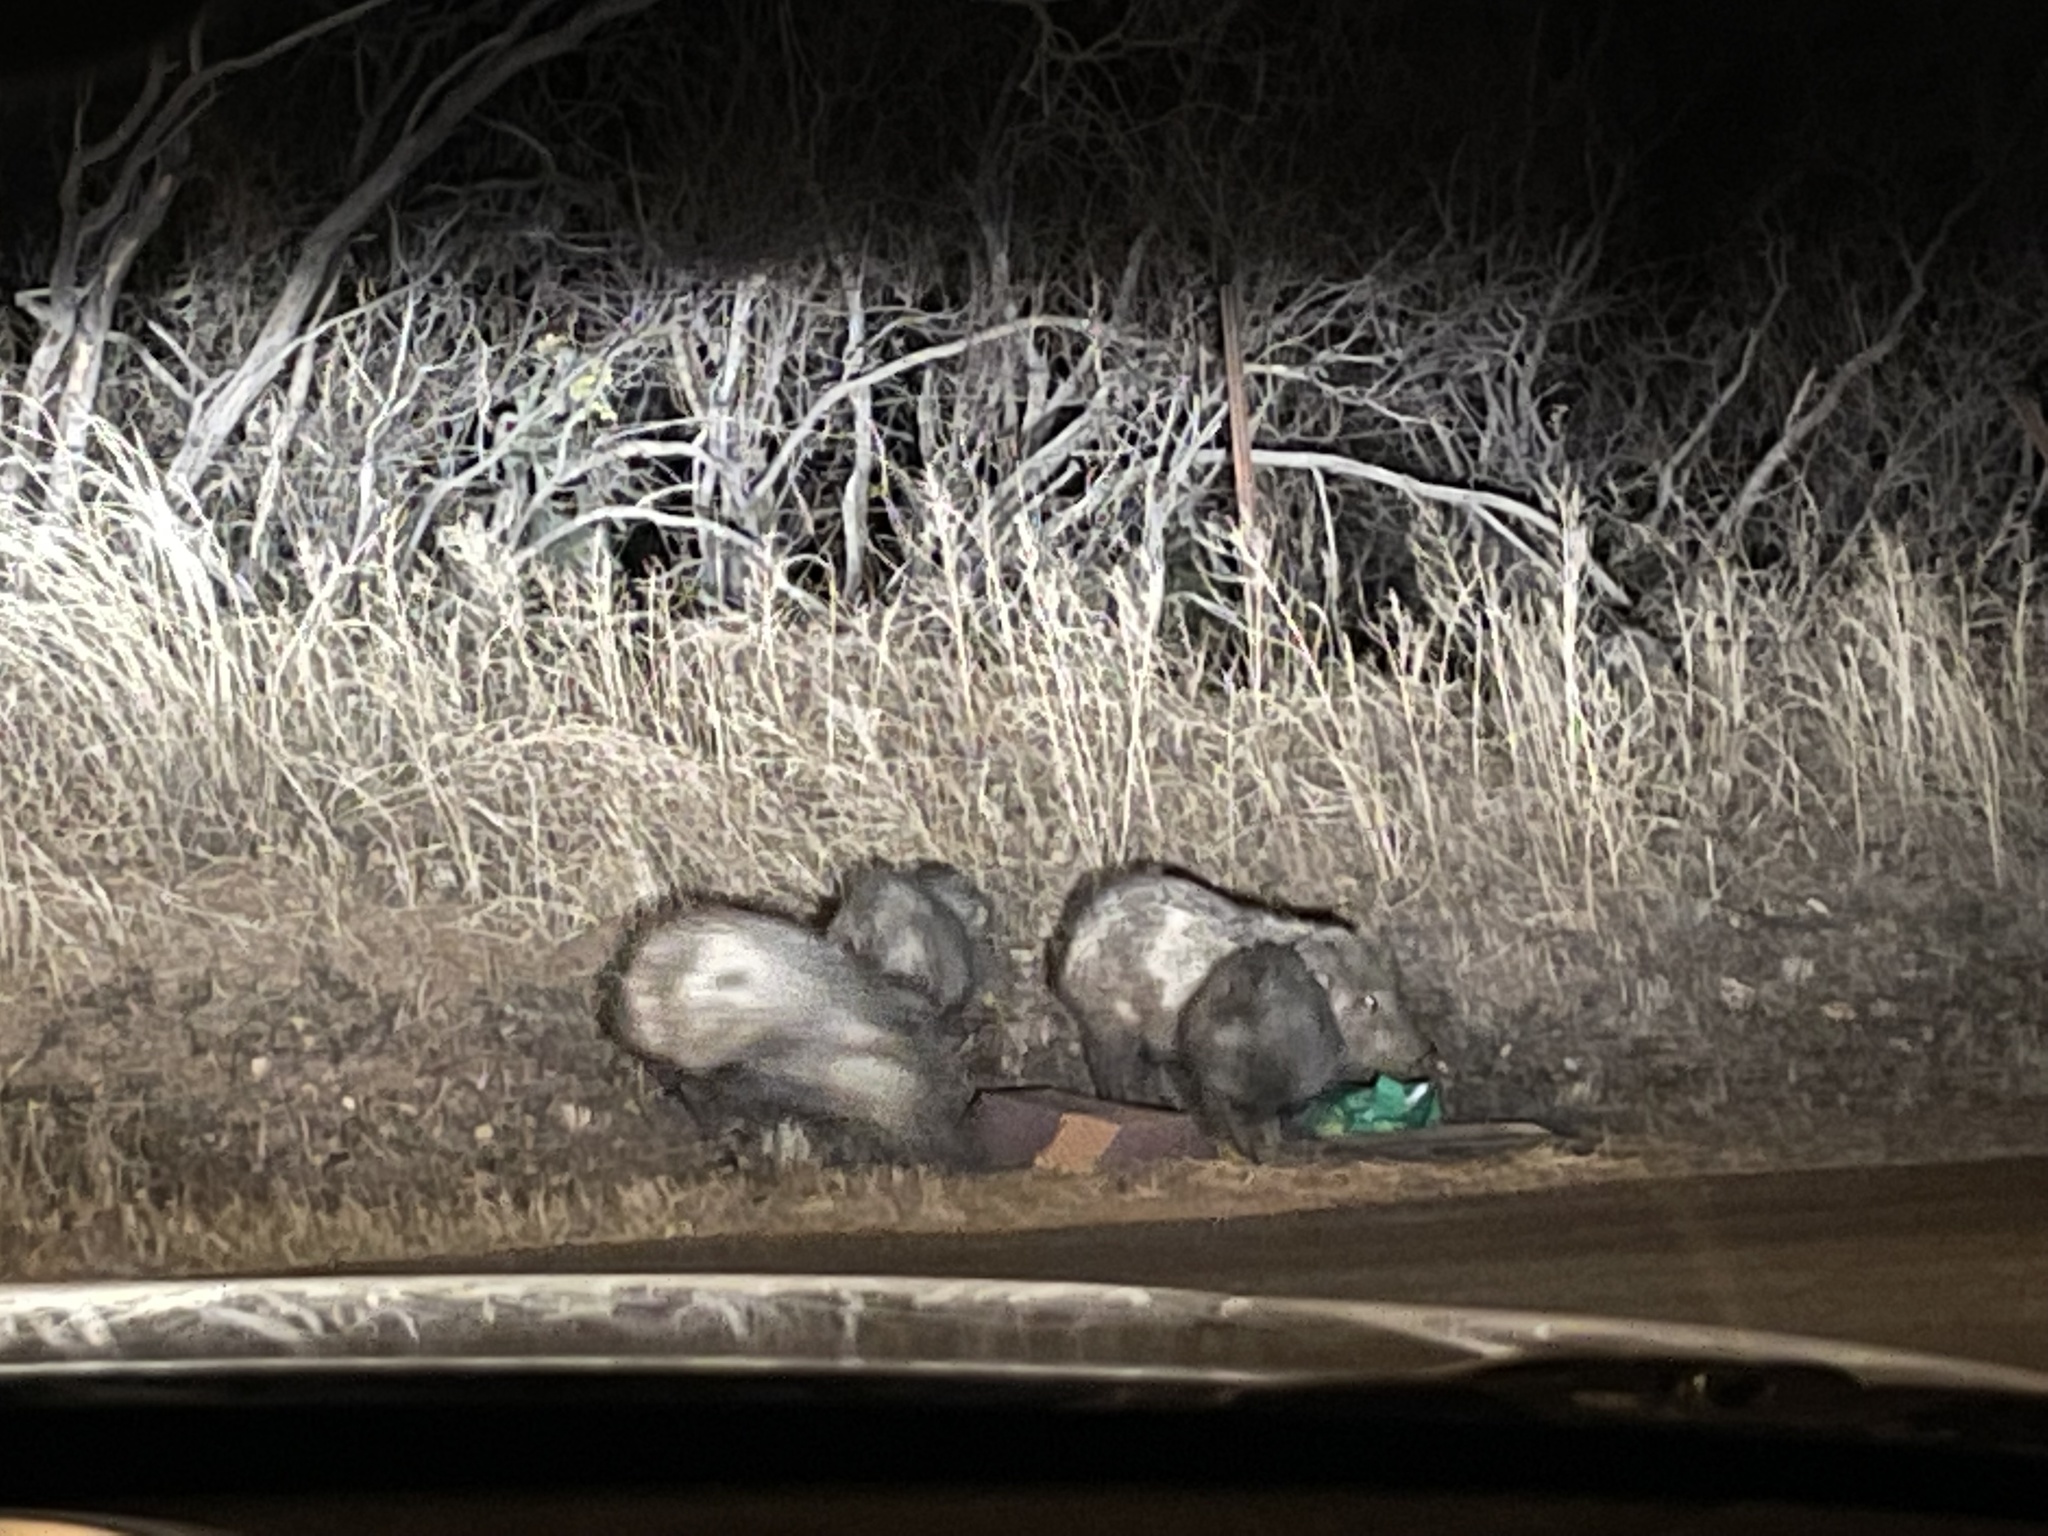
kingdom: Animalia
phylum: Chordata
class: Mammalia
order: Artiodactyla
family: Tayassuidae
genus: Pecari
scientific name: Pecari tajacu
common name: Collared peccary
